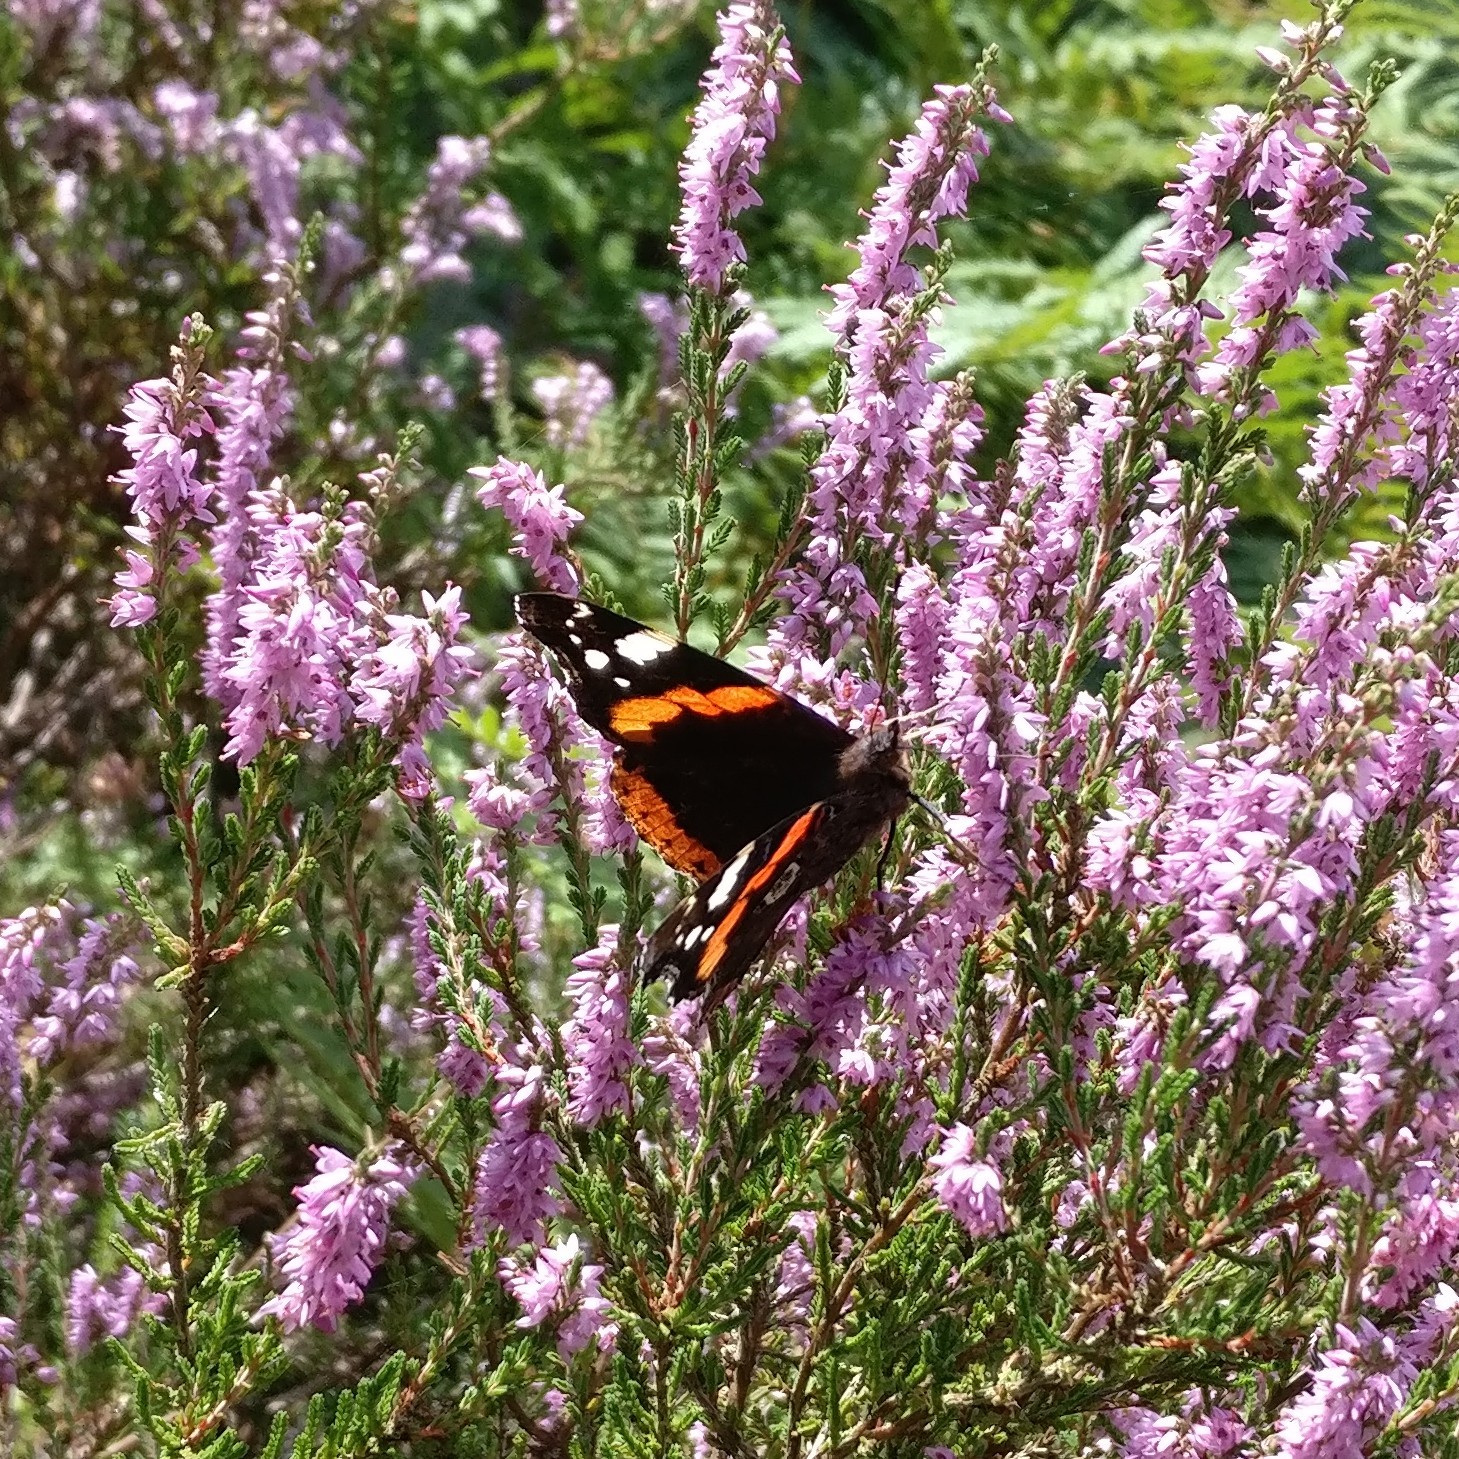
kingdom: Animalia
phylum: Arthropoda
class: Insecta
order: Lepidoptera
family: Nymphalidae
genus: Vanessa
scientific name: Vanessa atalanta
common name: Red admiral
